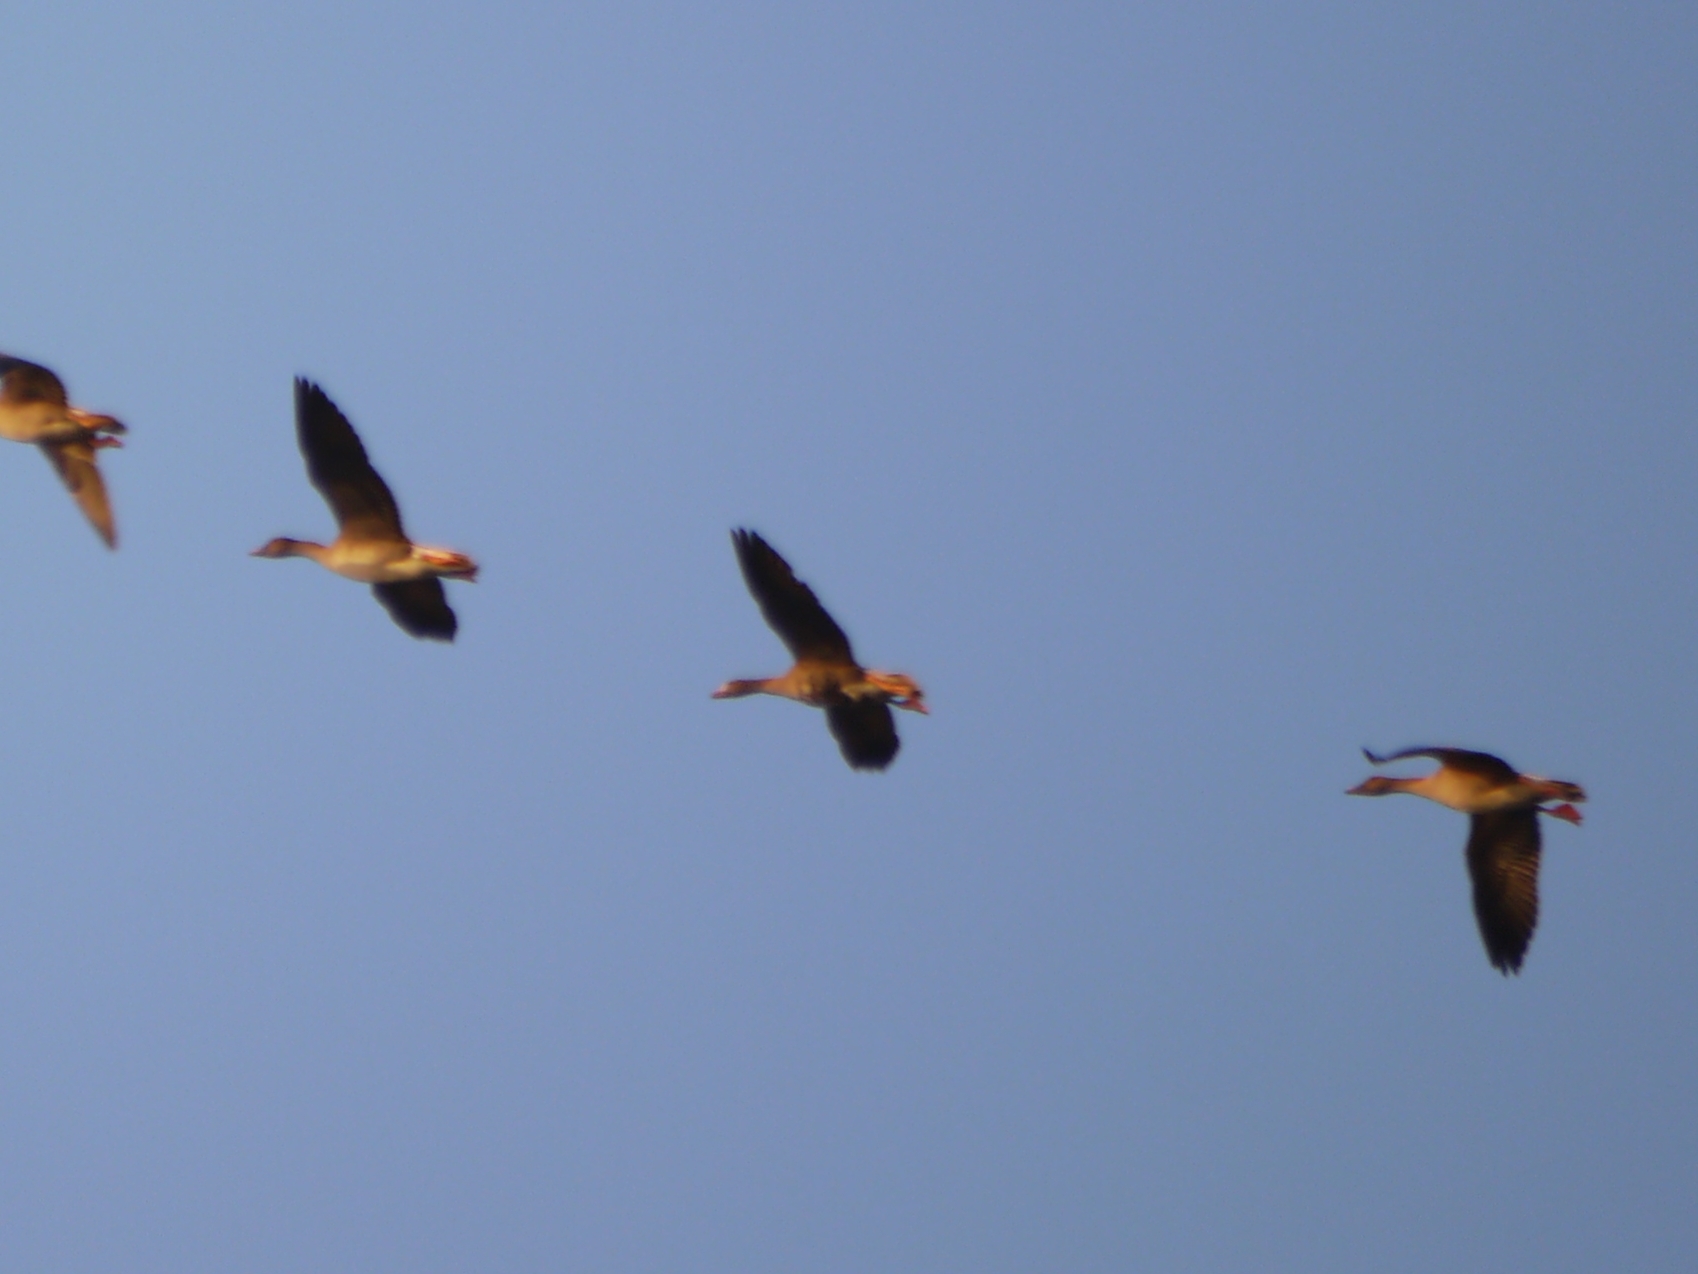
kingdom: Animalia
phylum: Chordata
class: Aves
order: Anseriformes
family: Anatidae
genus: Anser
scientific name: Anser albifrons
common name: Greater white-fronted goose
